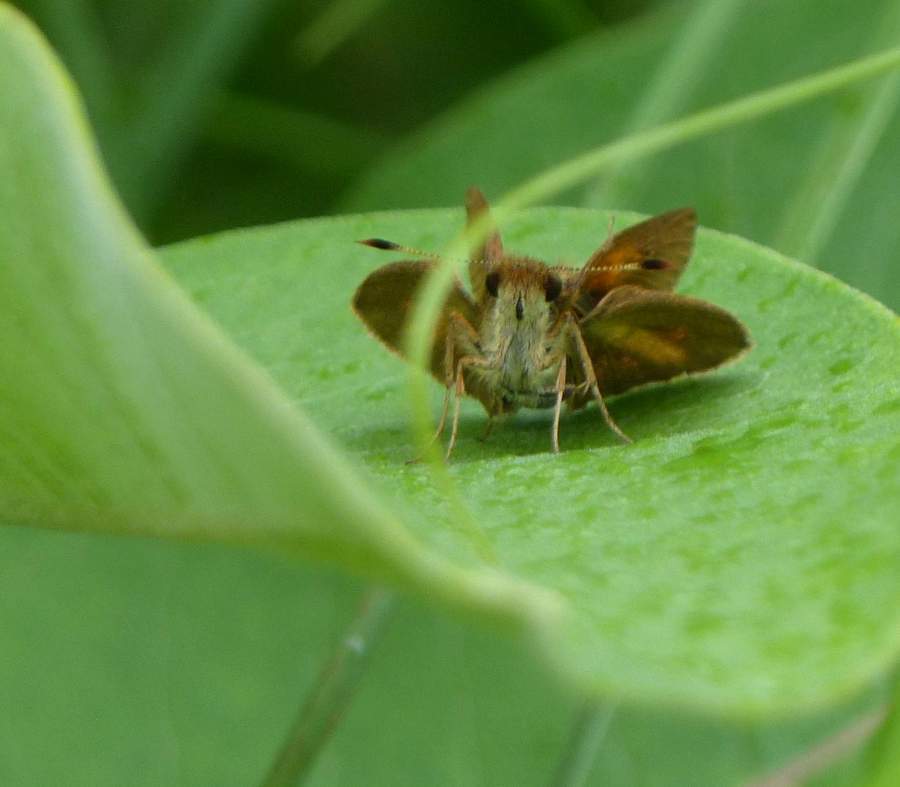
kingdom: Animalia
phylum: Arthropoda
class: Insecta
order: Lepidoptera
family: Hesperiidae
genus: Poanes
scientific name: Poanes viator
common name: Broad-winged skipper
